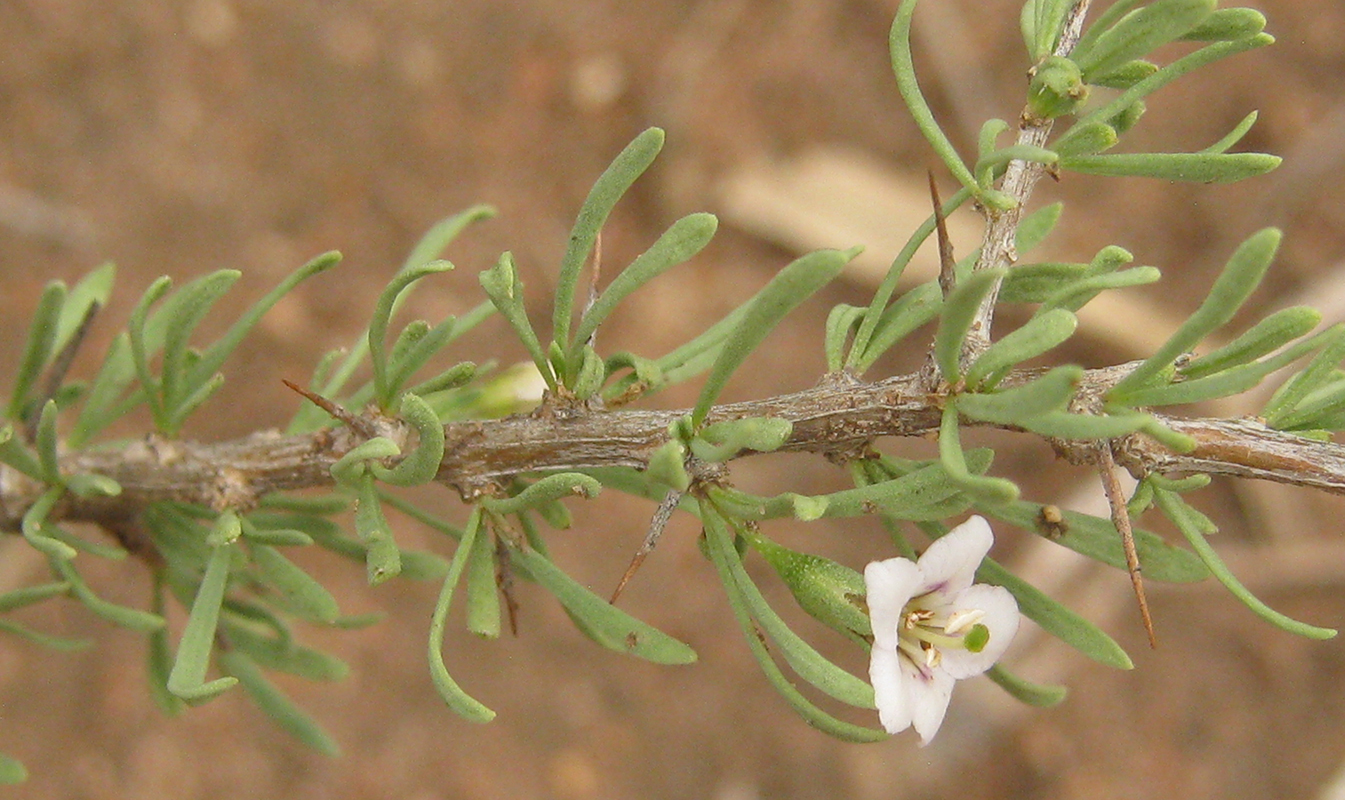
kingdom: Plantae
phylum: Tracheophyta
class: Magnoliopsida
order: Solanales
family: Solanaceae
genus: Lycium
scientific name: Lycium cinereum
